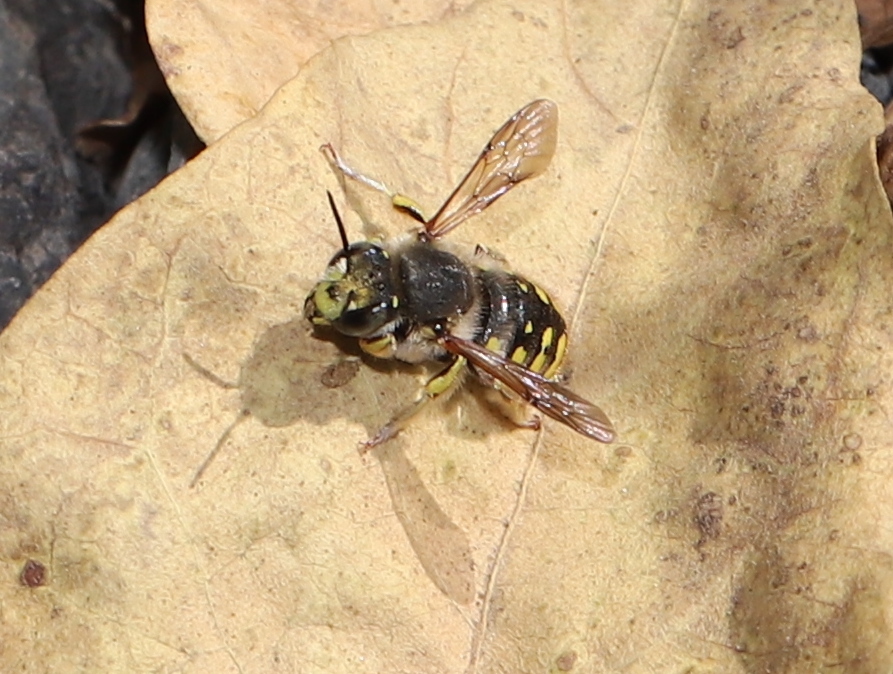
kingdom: Animalia
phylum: Arthropoda
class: Insecta
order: Hymenoptera
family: Megachilidae
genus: Anthidium
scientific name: Anthidium manicatum
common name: Wool carder bee
